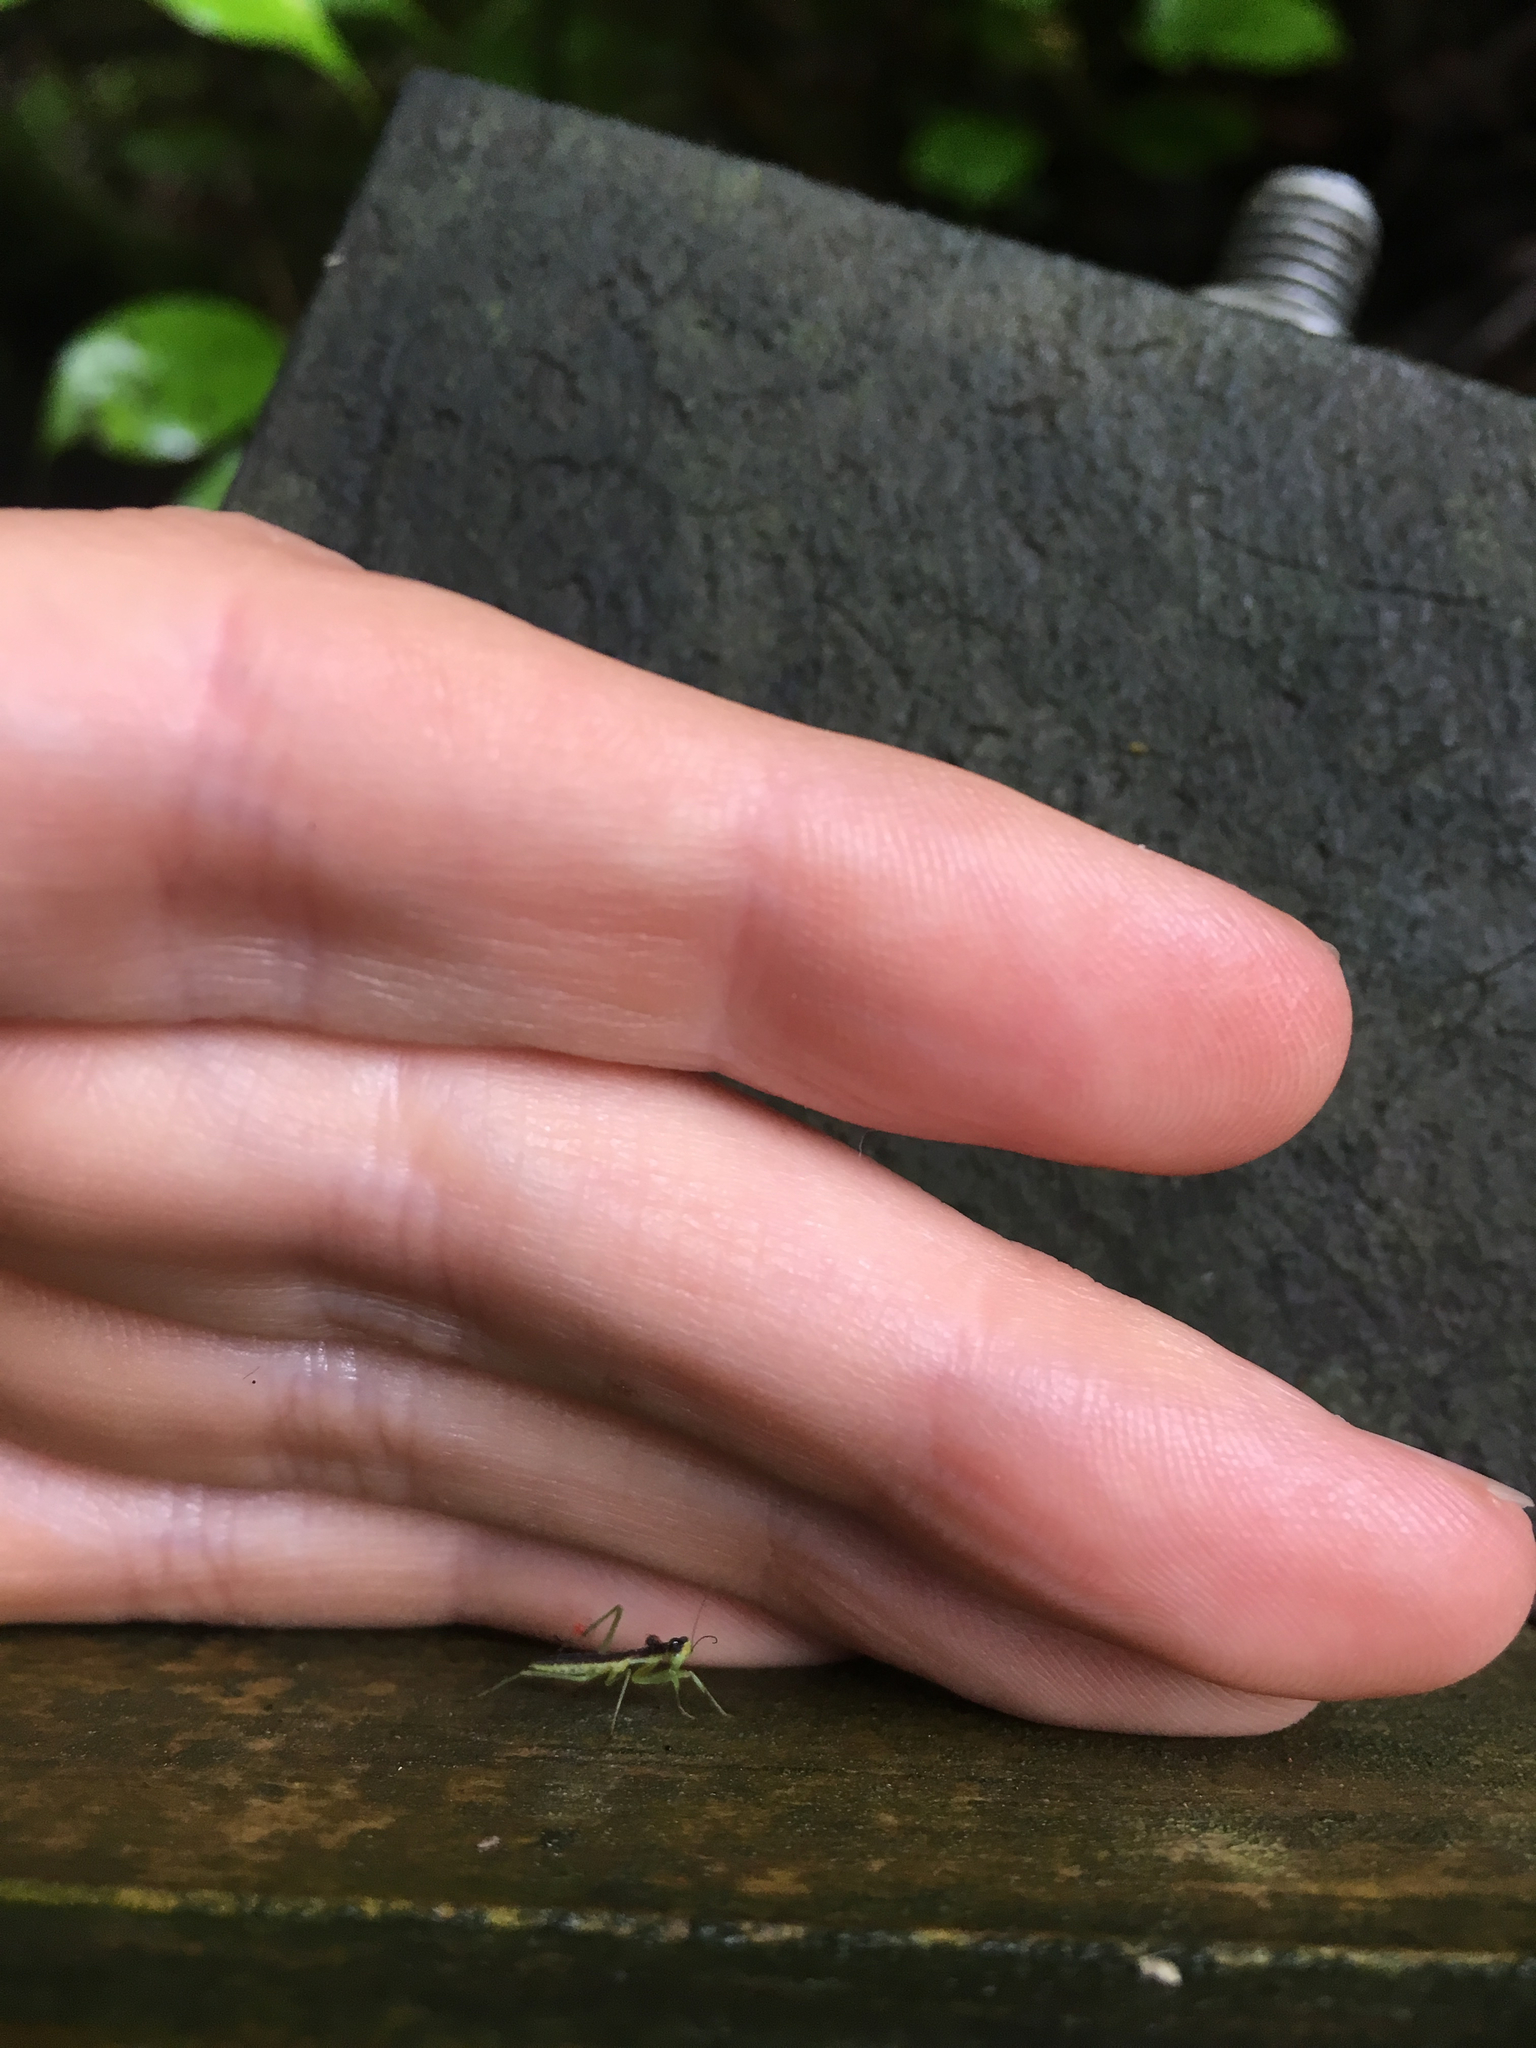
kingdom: Animalia
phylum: Arthropoda
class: Insecta
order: Mantodea
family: Mantidae
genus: Orthodera
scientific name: Orthodera novaezealandiae
